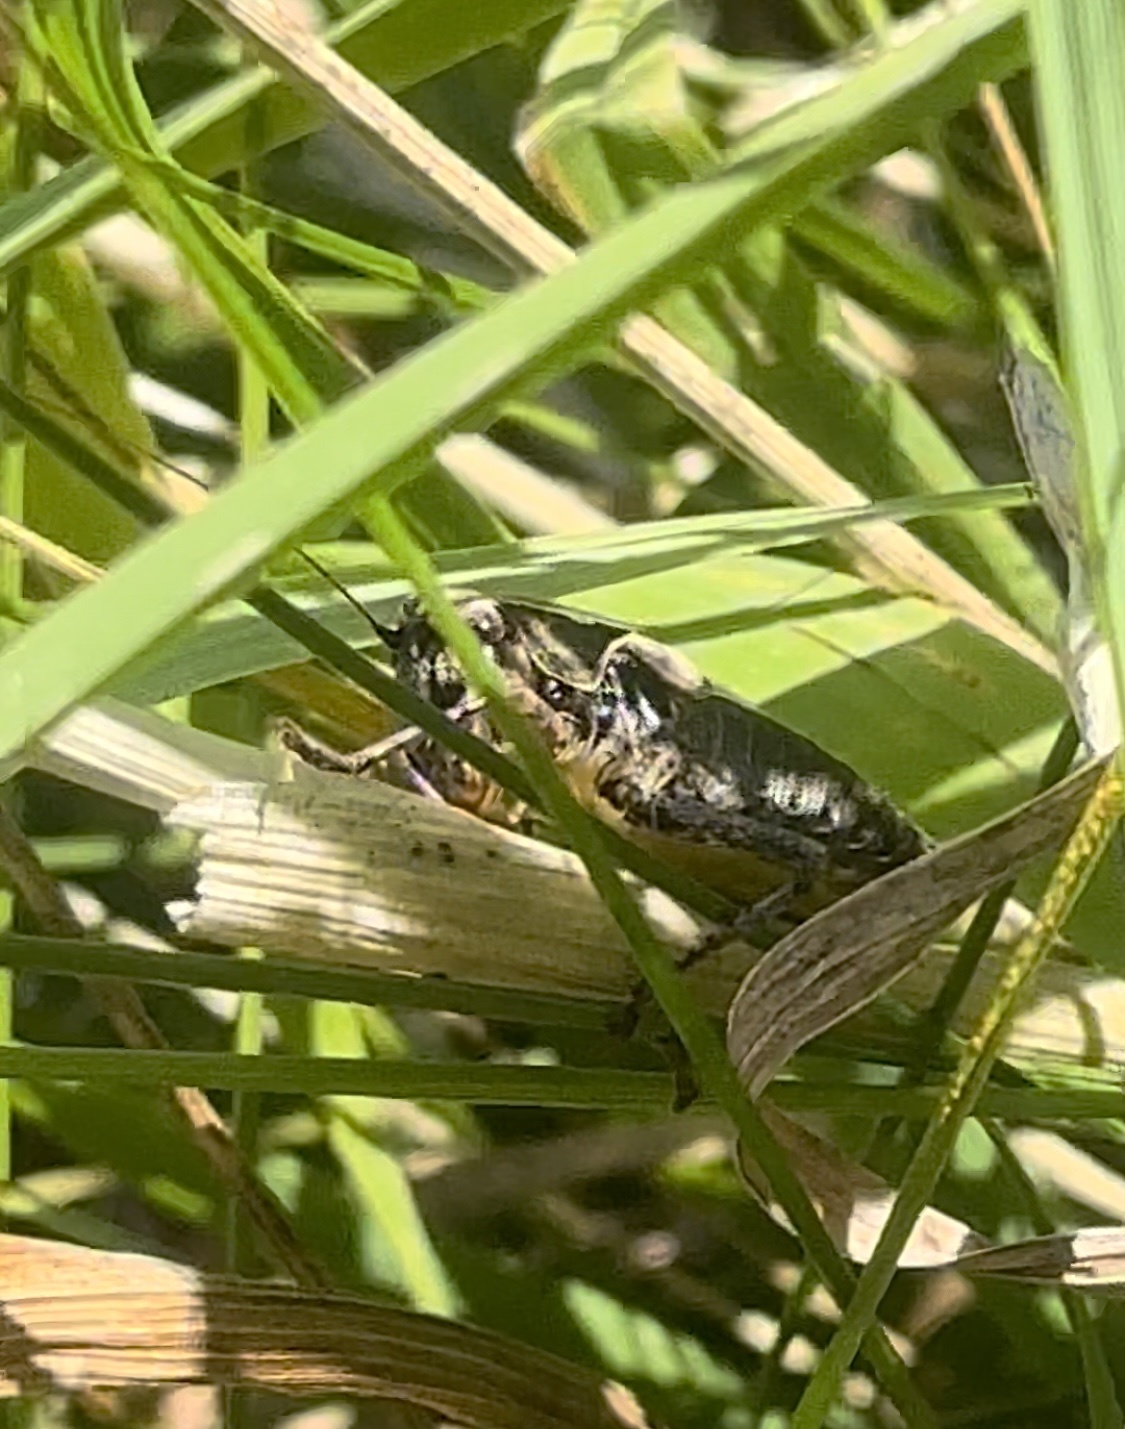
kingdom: Animalia
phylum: Arthropoda
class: Insecta
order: Orthoptera
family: Tettigoniidae
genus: Pholidoptera
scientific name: Pholidoptera griseoaptera
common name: Dark bush-cricket
